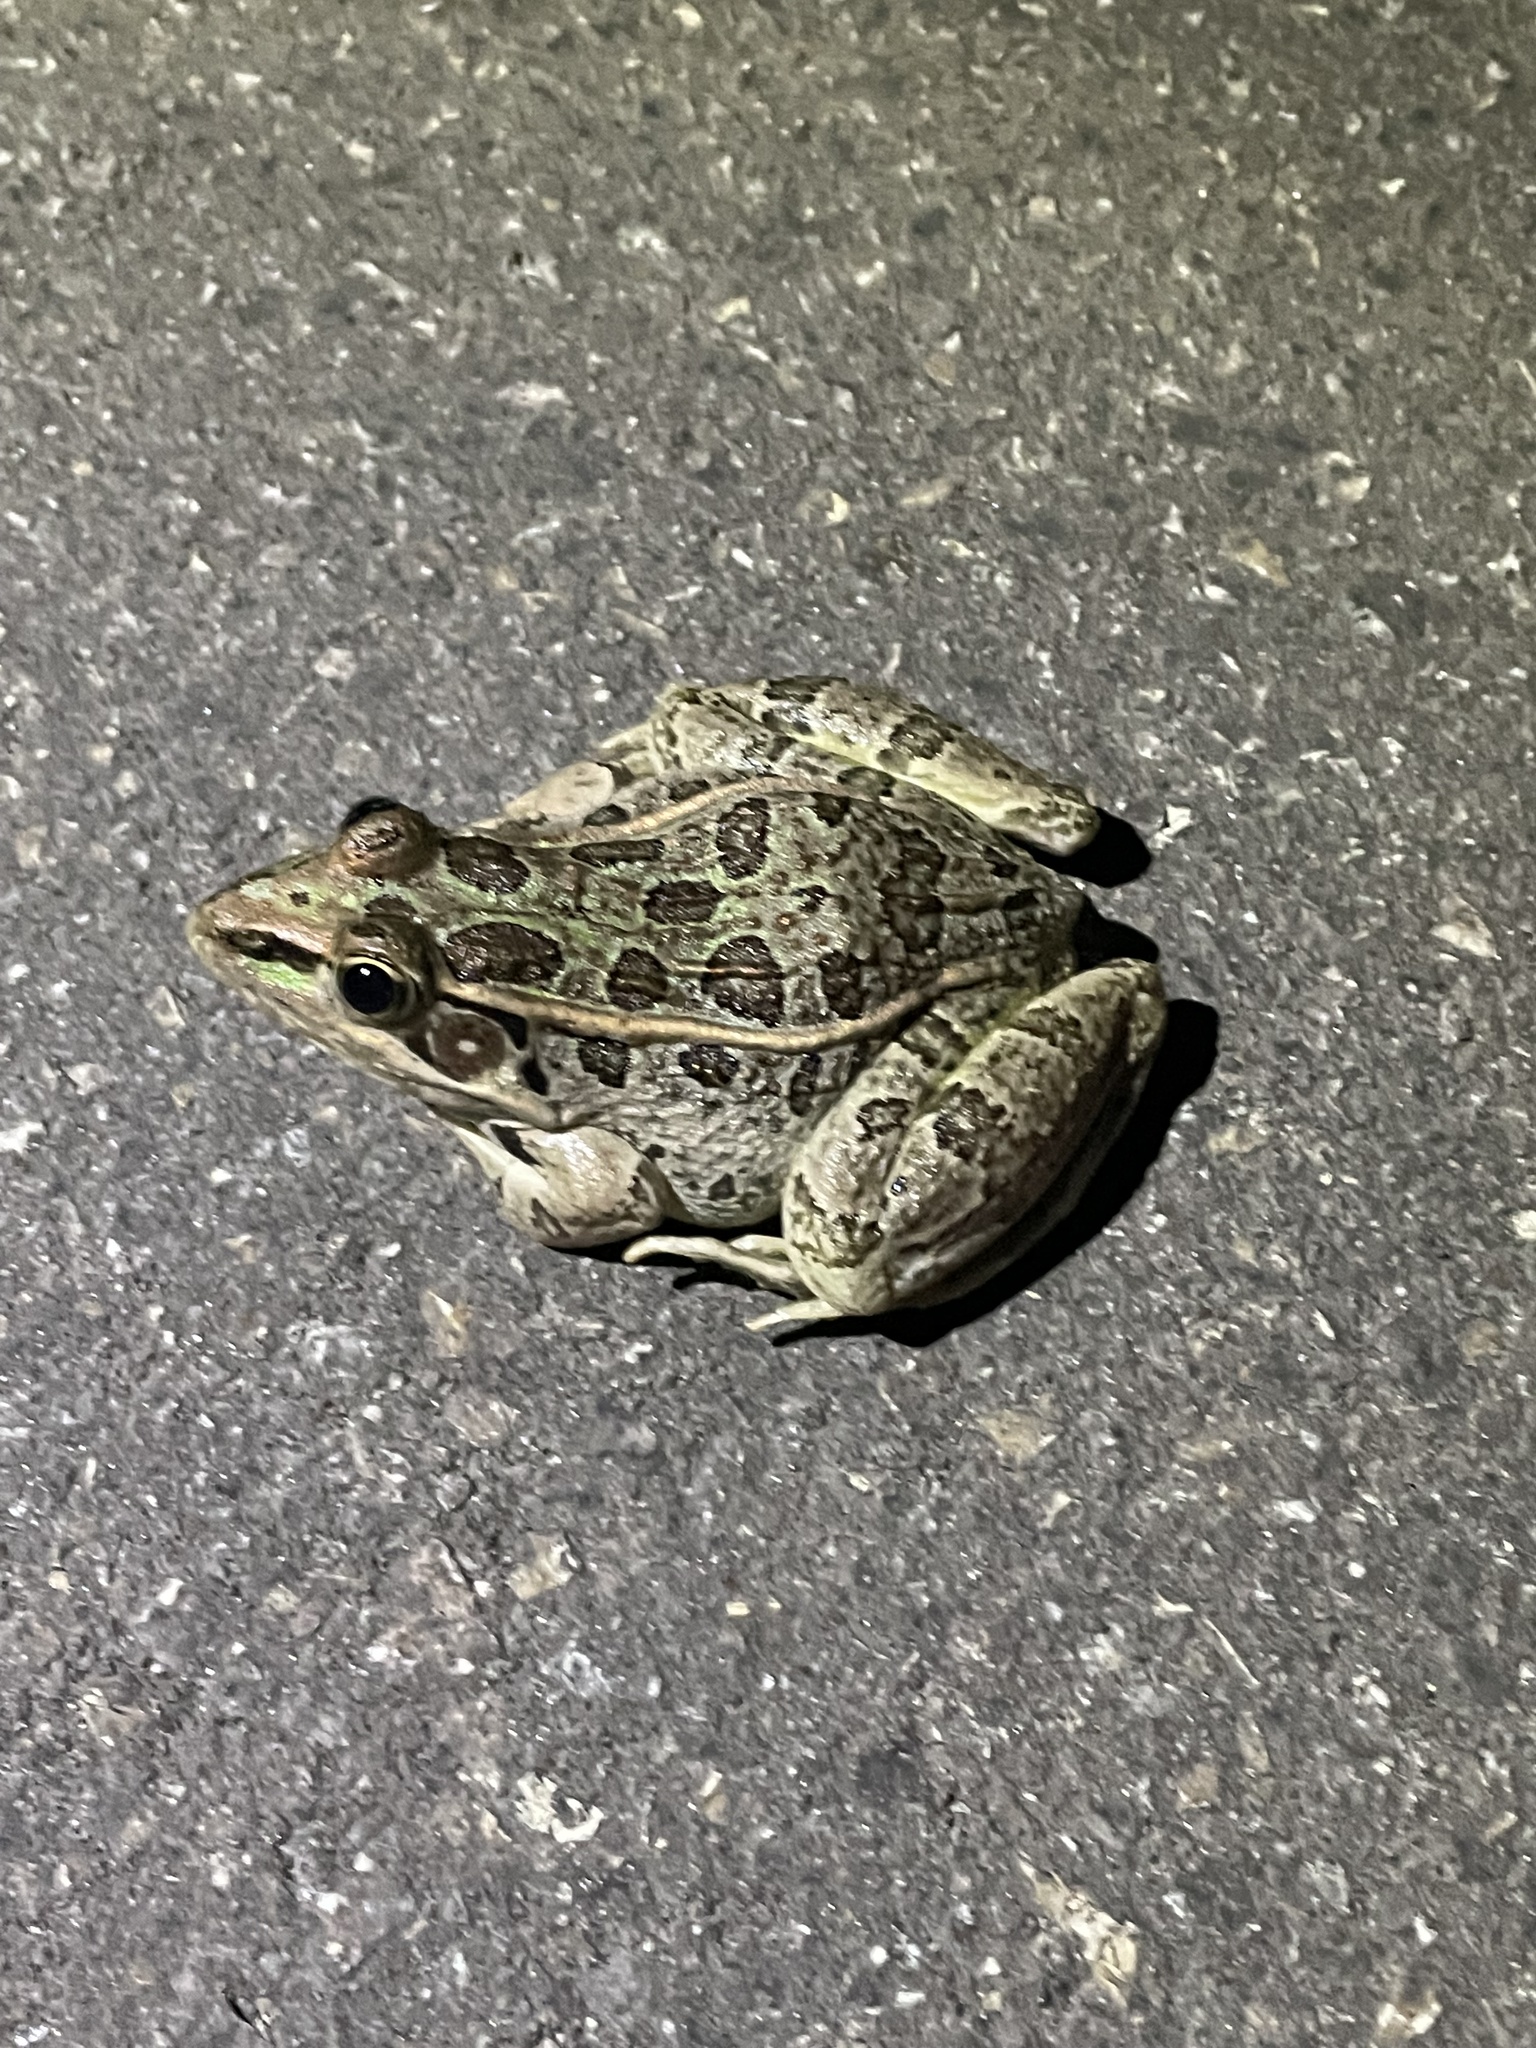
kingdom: Animalia
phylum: Chordata
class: Amphibia
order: Anura
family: Ranidae
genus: Lithobates
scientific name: Lithobates berlandieri
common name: Rio grande leopard frog
